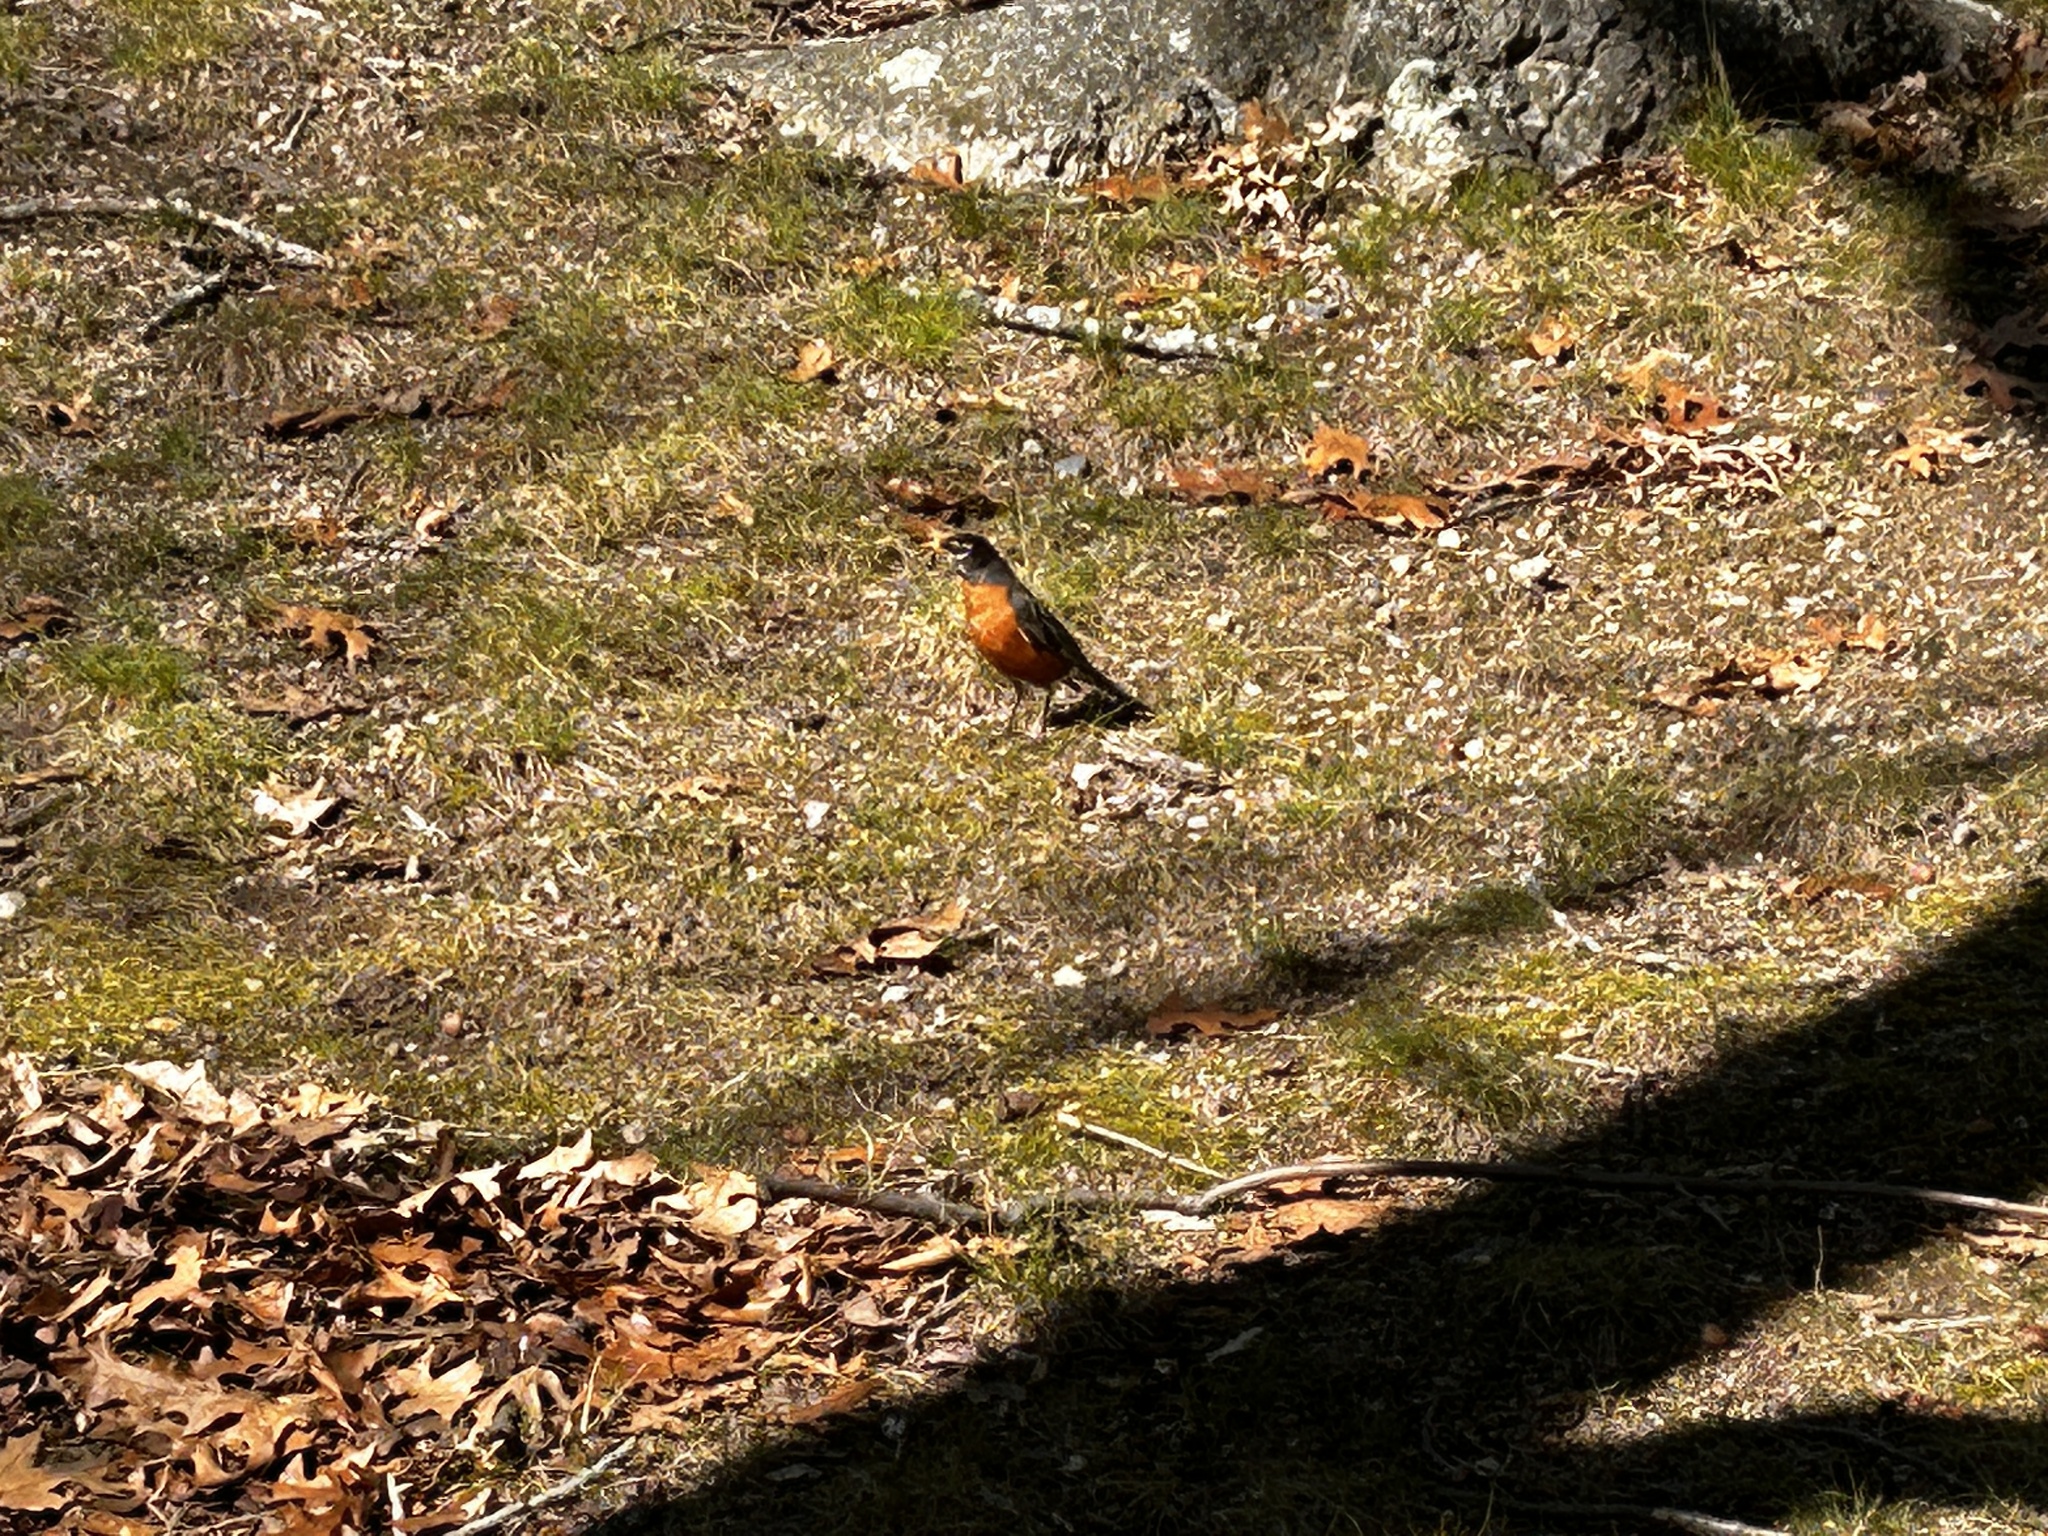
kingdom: Animalia
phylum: Chordata
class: Aves
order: Passeriformes
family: Turdidae
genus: Turdus
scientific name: Turdus migratorius
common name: American robin
